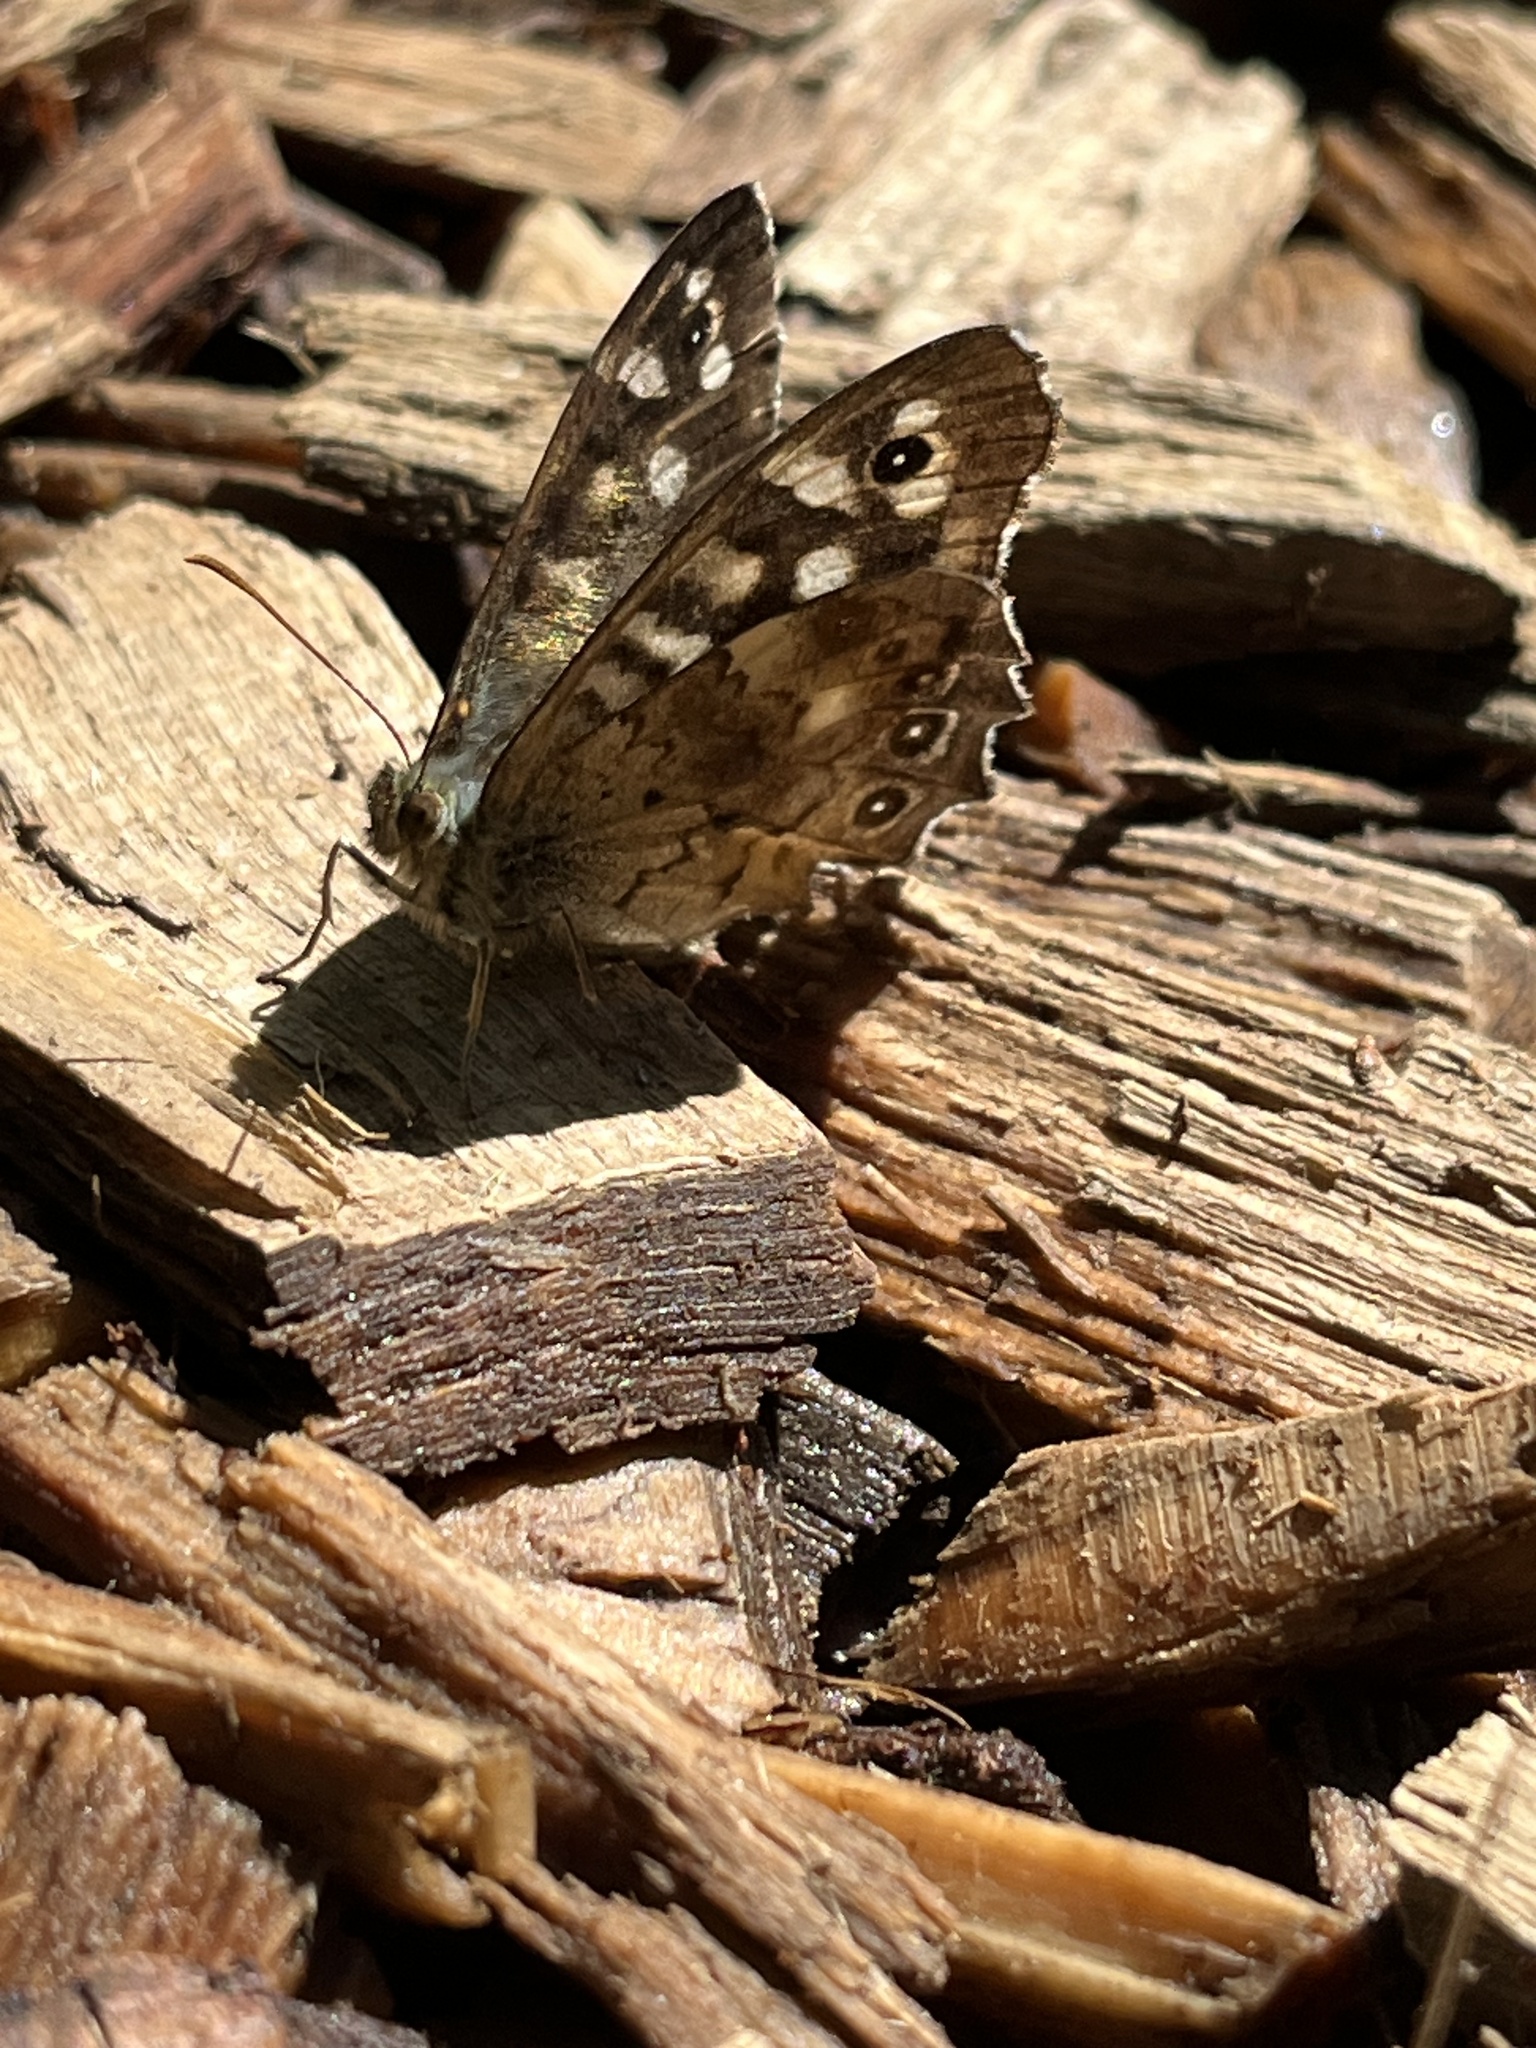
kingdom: Animalia
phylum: Arthropoda
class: Insecta
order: Lepidoptera
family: Nymphalidae
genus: Pararge
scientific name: Pararge aegeria
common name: Speckled wood
